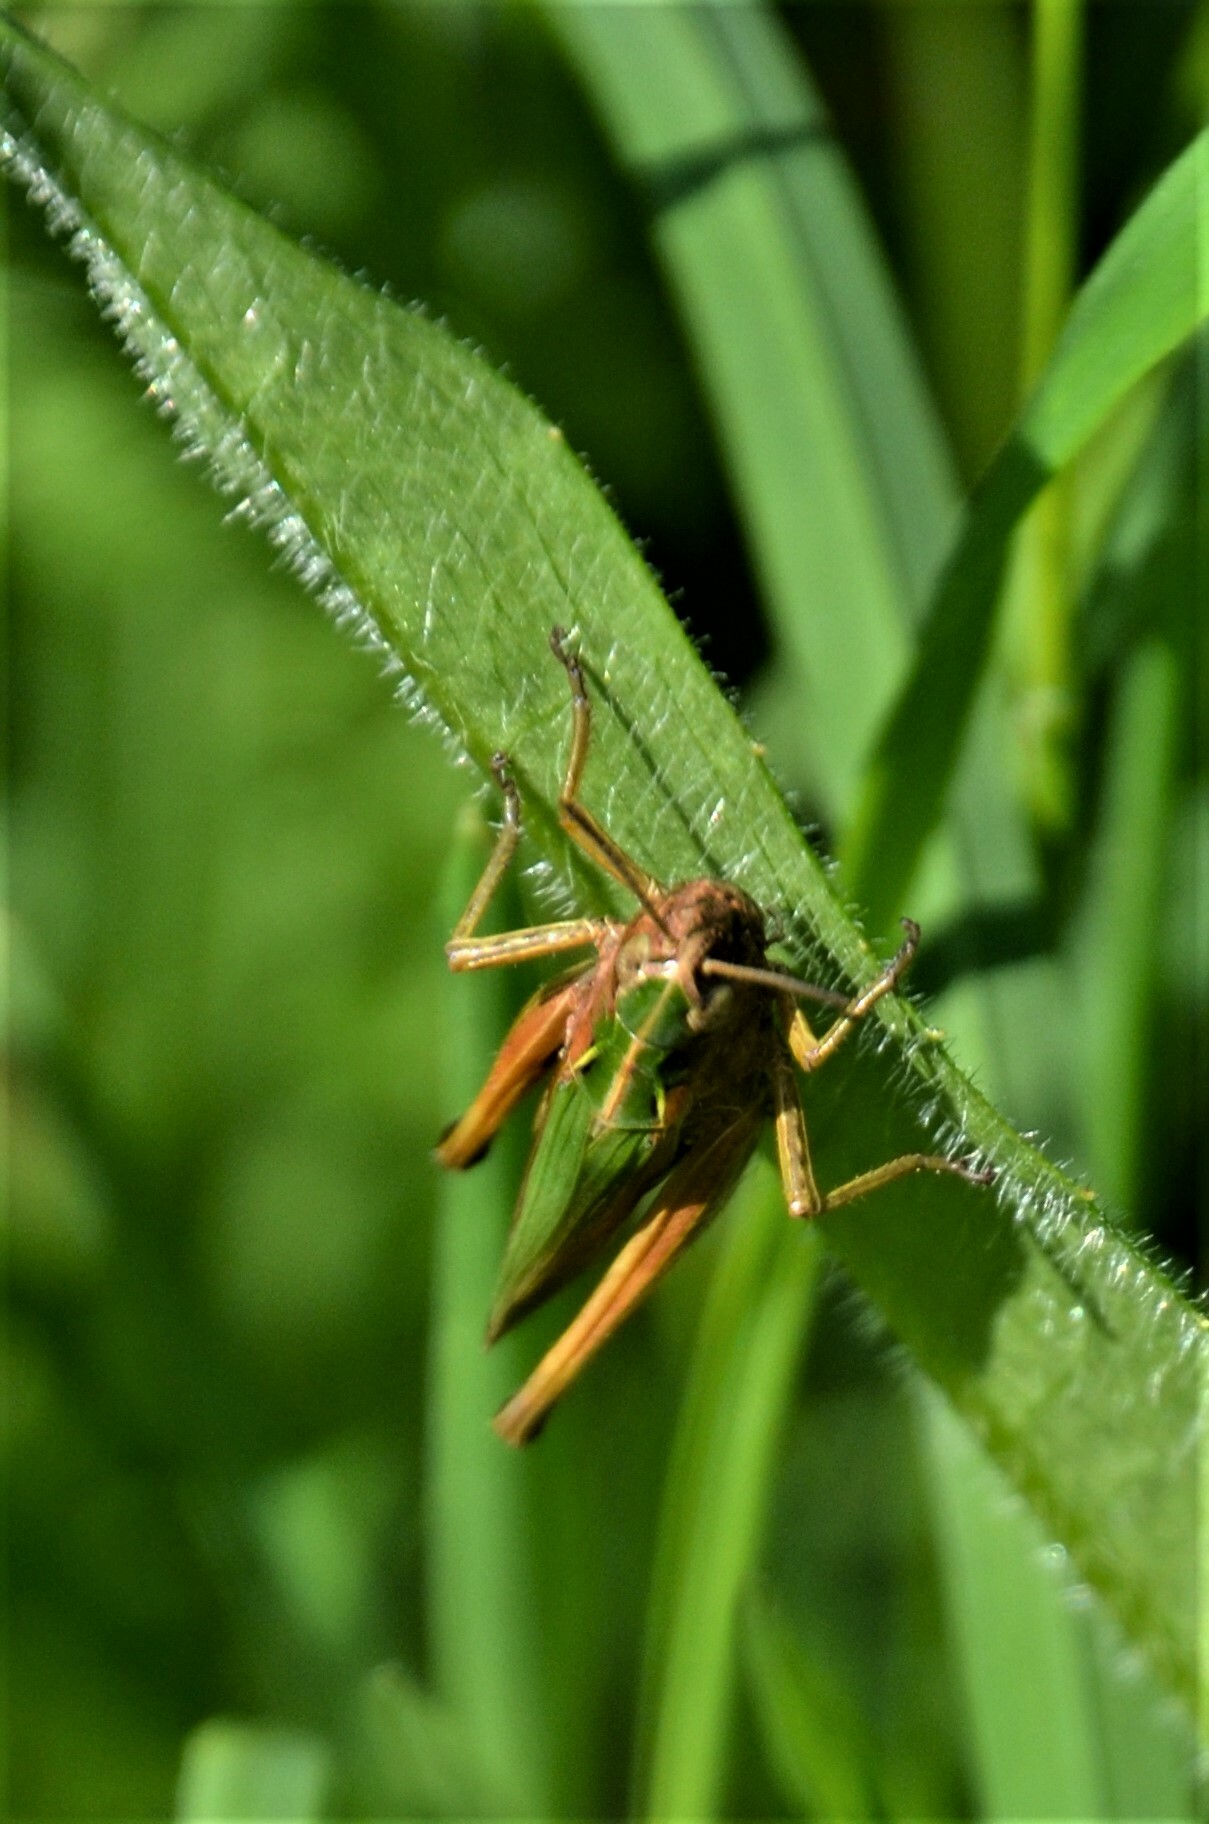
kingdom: Animalia
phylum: Arthropoda
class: Insecta
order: Orthoptera
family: Acrididae
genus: Omocestus
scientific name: Omocestus viridulus
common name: Common green grasshopper
